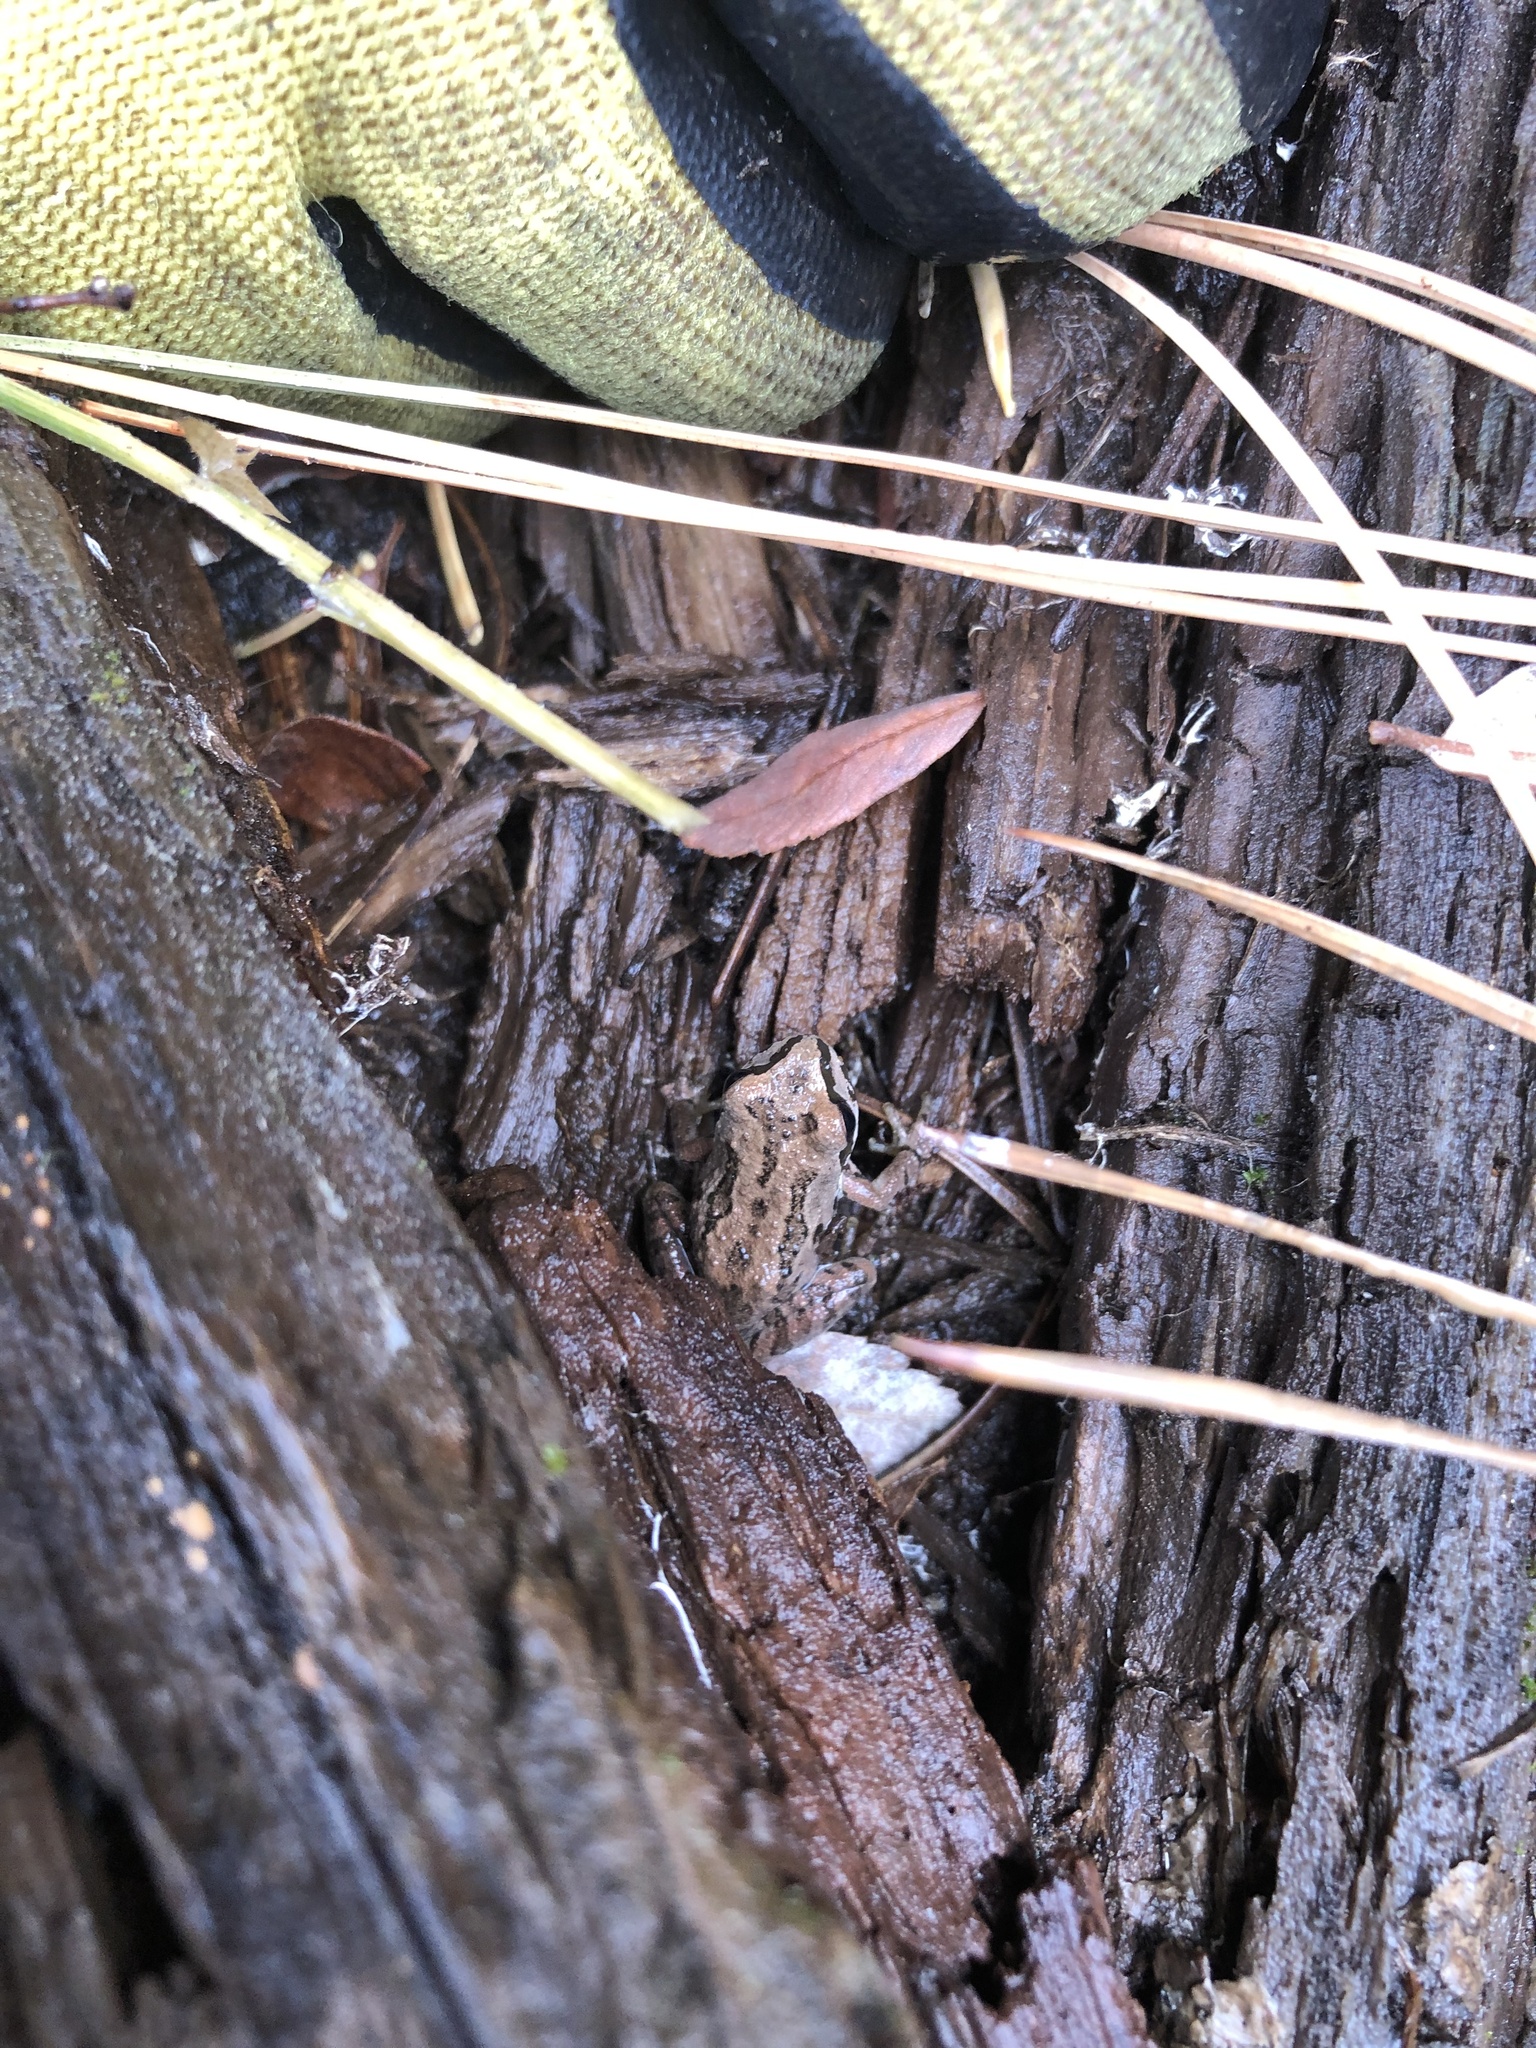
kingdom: Animalia
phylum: Chordata
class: Amphibia
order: Anura
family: Hylidae
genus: Pseudacris
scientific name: Pseudacris regilla
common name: Pacific chorus frog
